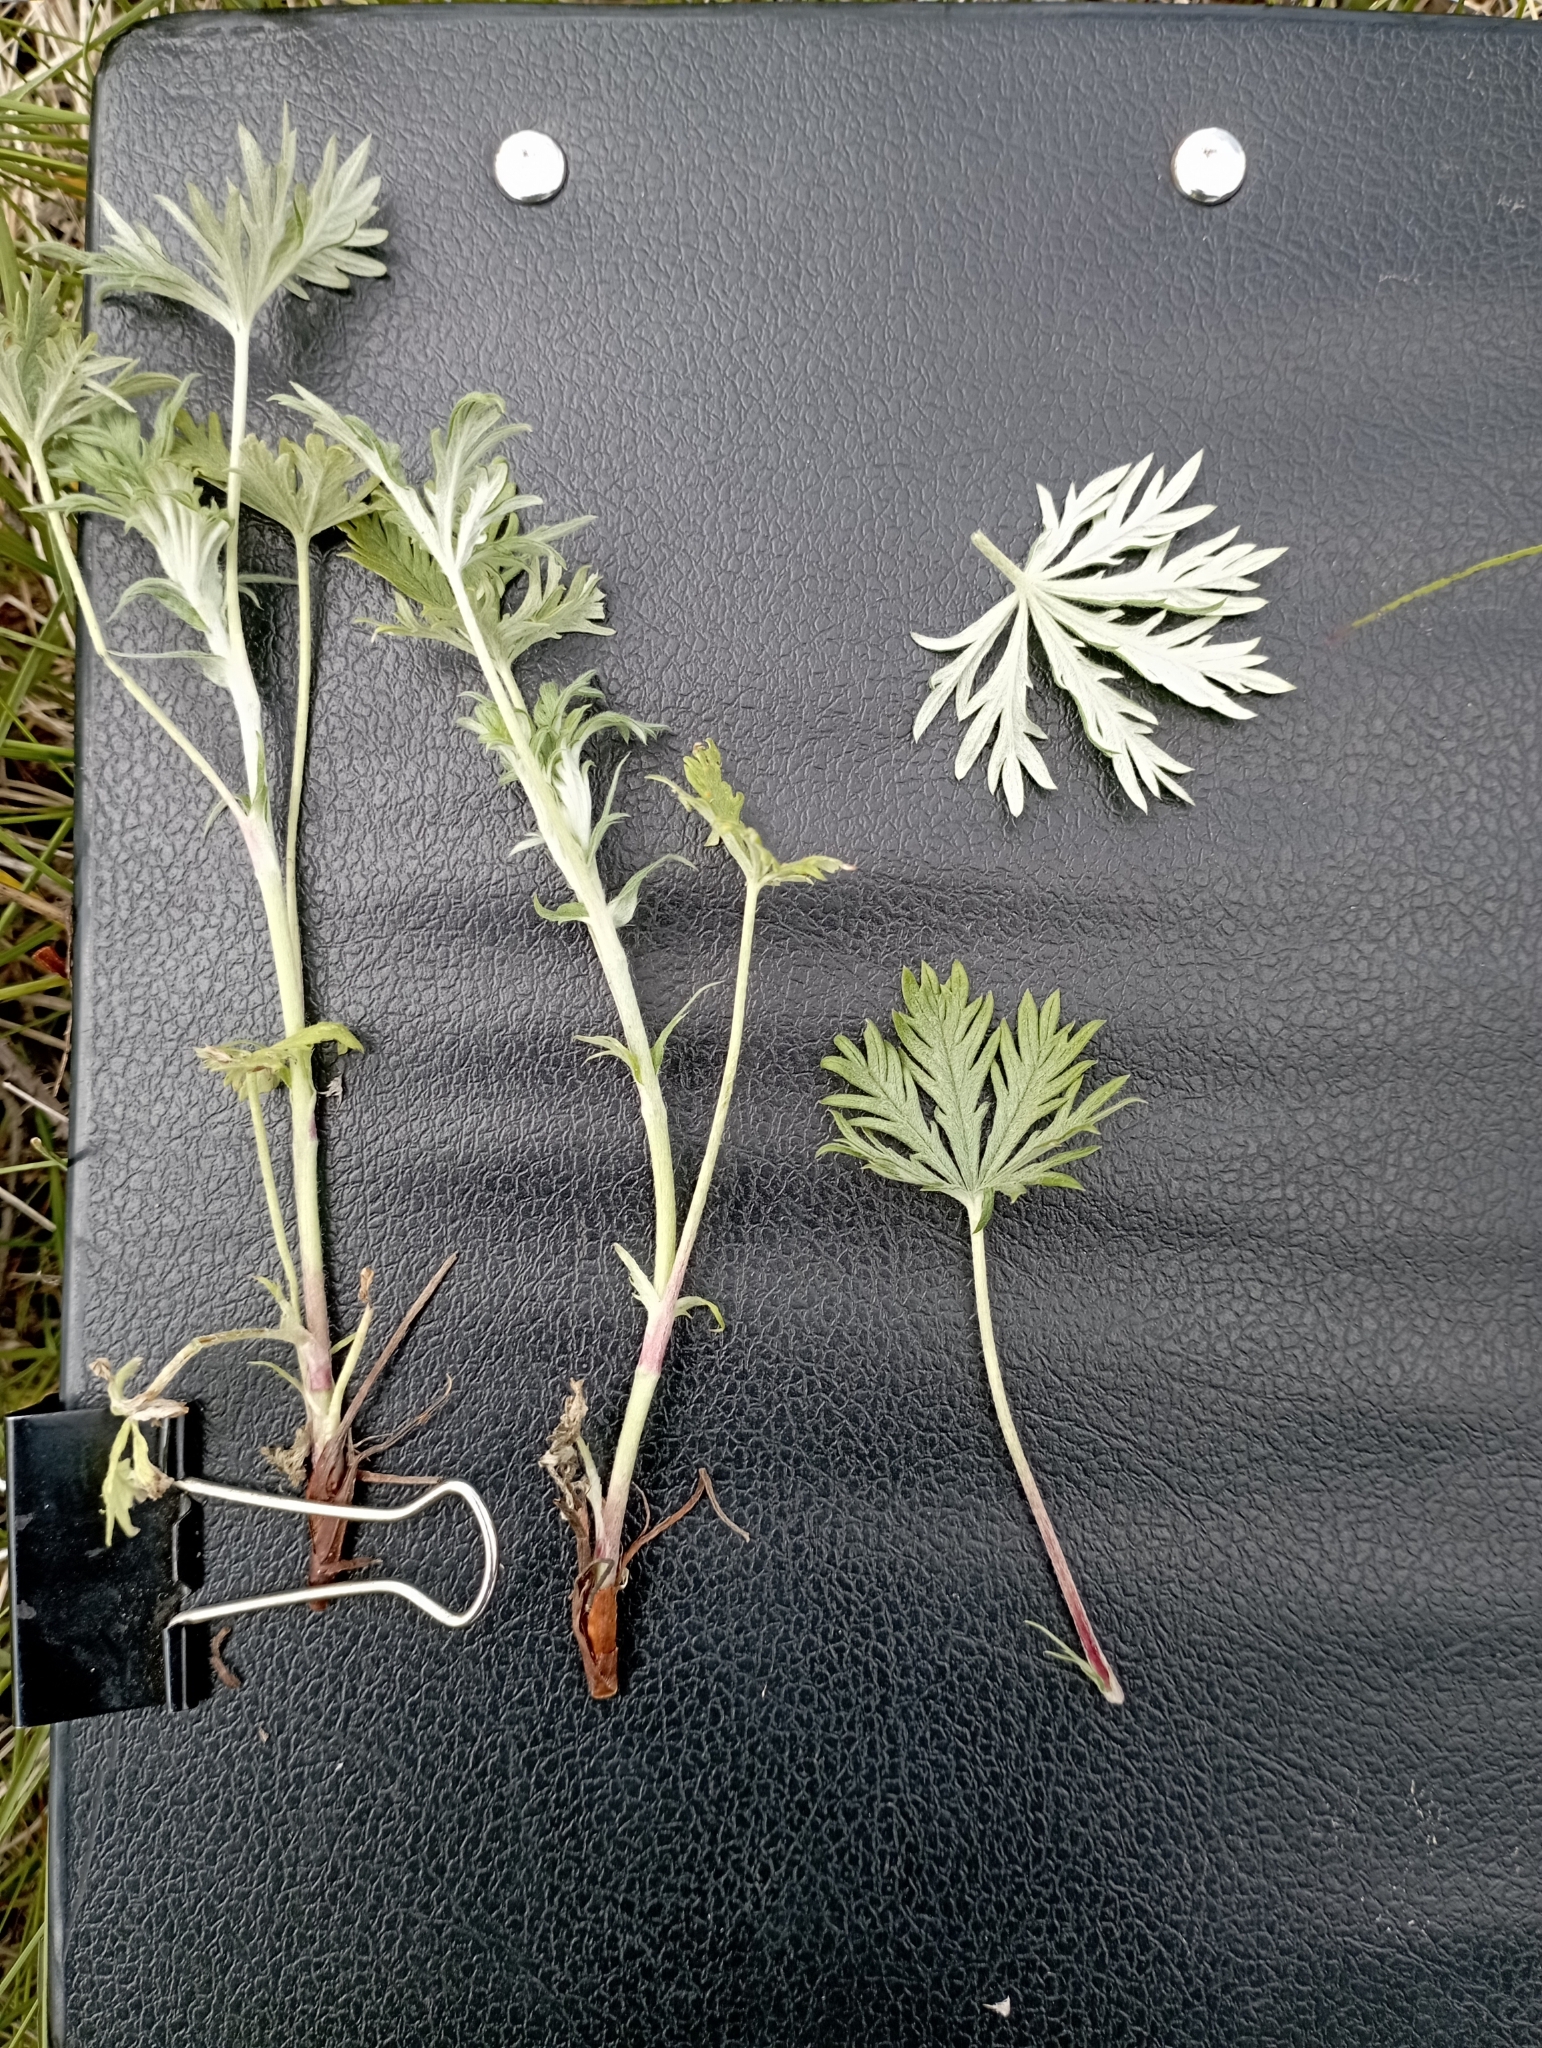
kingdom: Plantae
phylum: Tracheophyta
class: Magnoliopsida
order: Rosales
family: Rosaceae
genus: Potentilla
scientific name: Potentilla argentea
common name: Hoary cinquefoil
